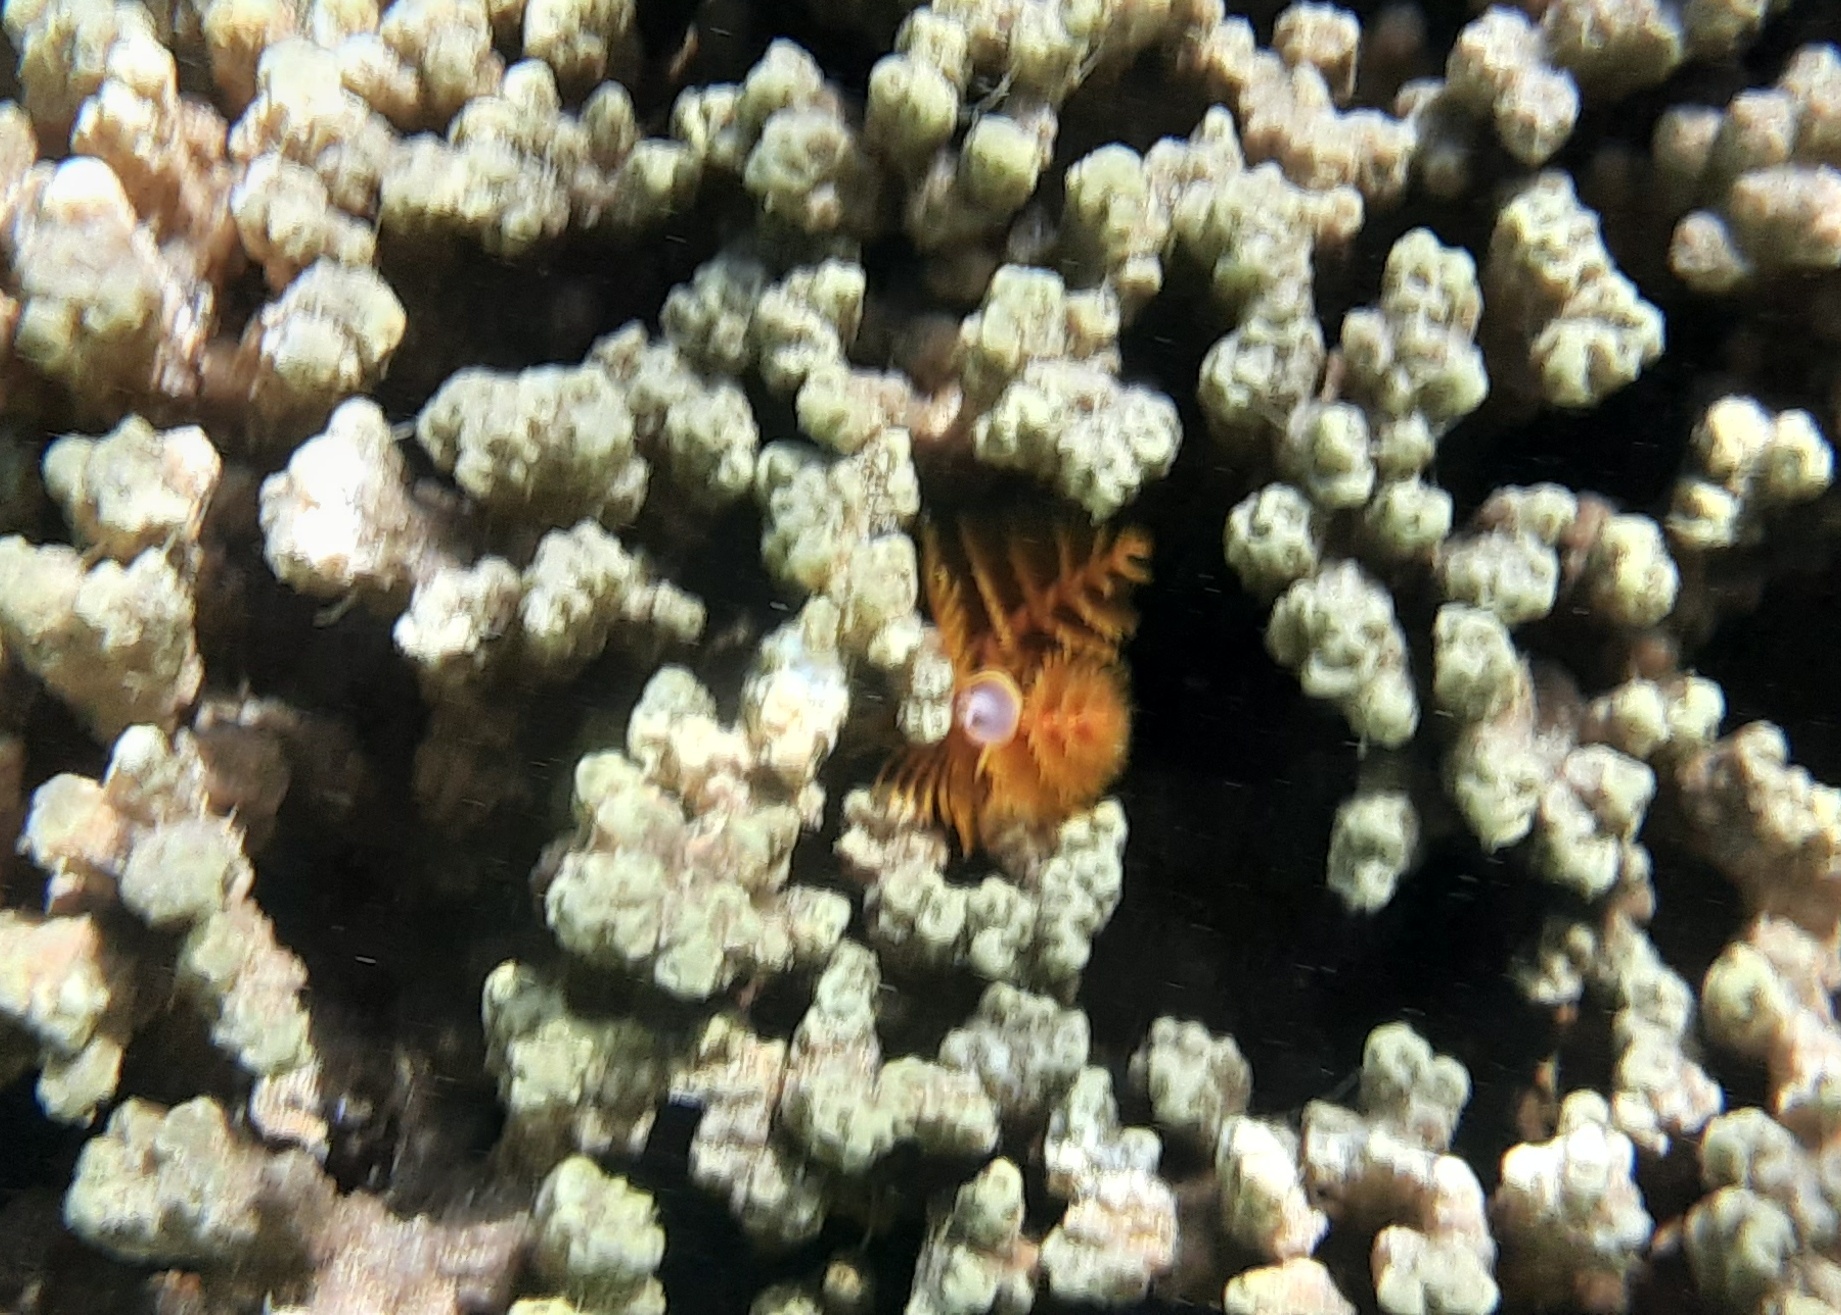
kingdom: Animalia
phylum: Annelida
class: Polychaeta
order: Sabellida
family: Serpulidae
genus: Spirobranchus
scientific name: Spirobranchus corniculatus
